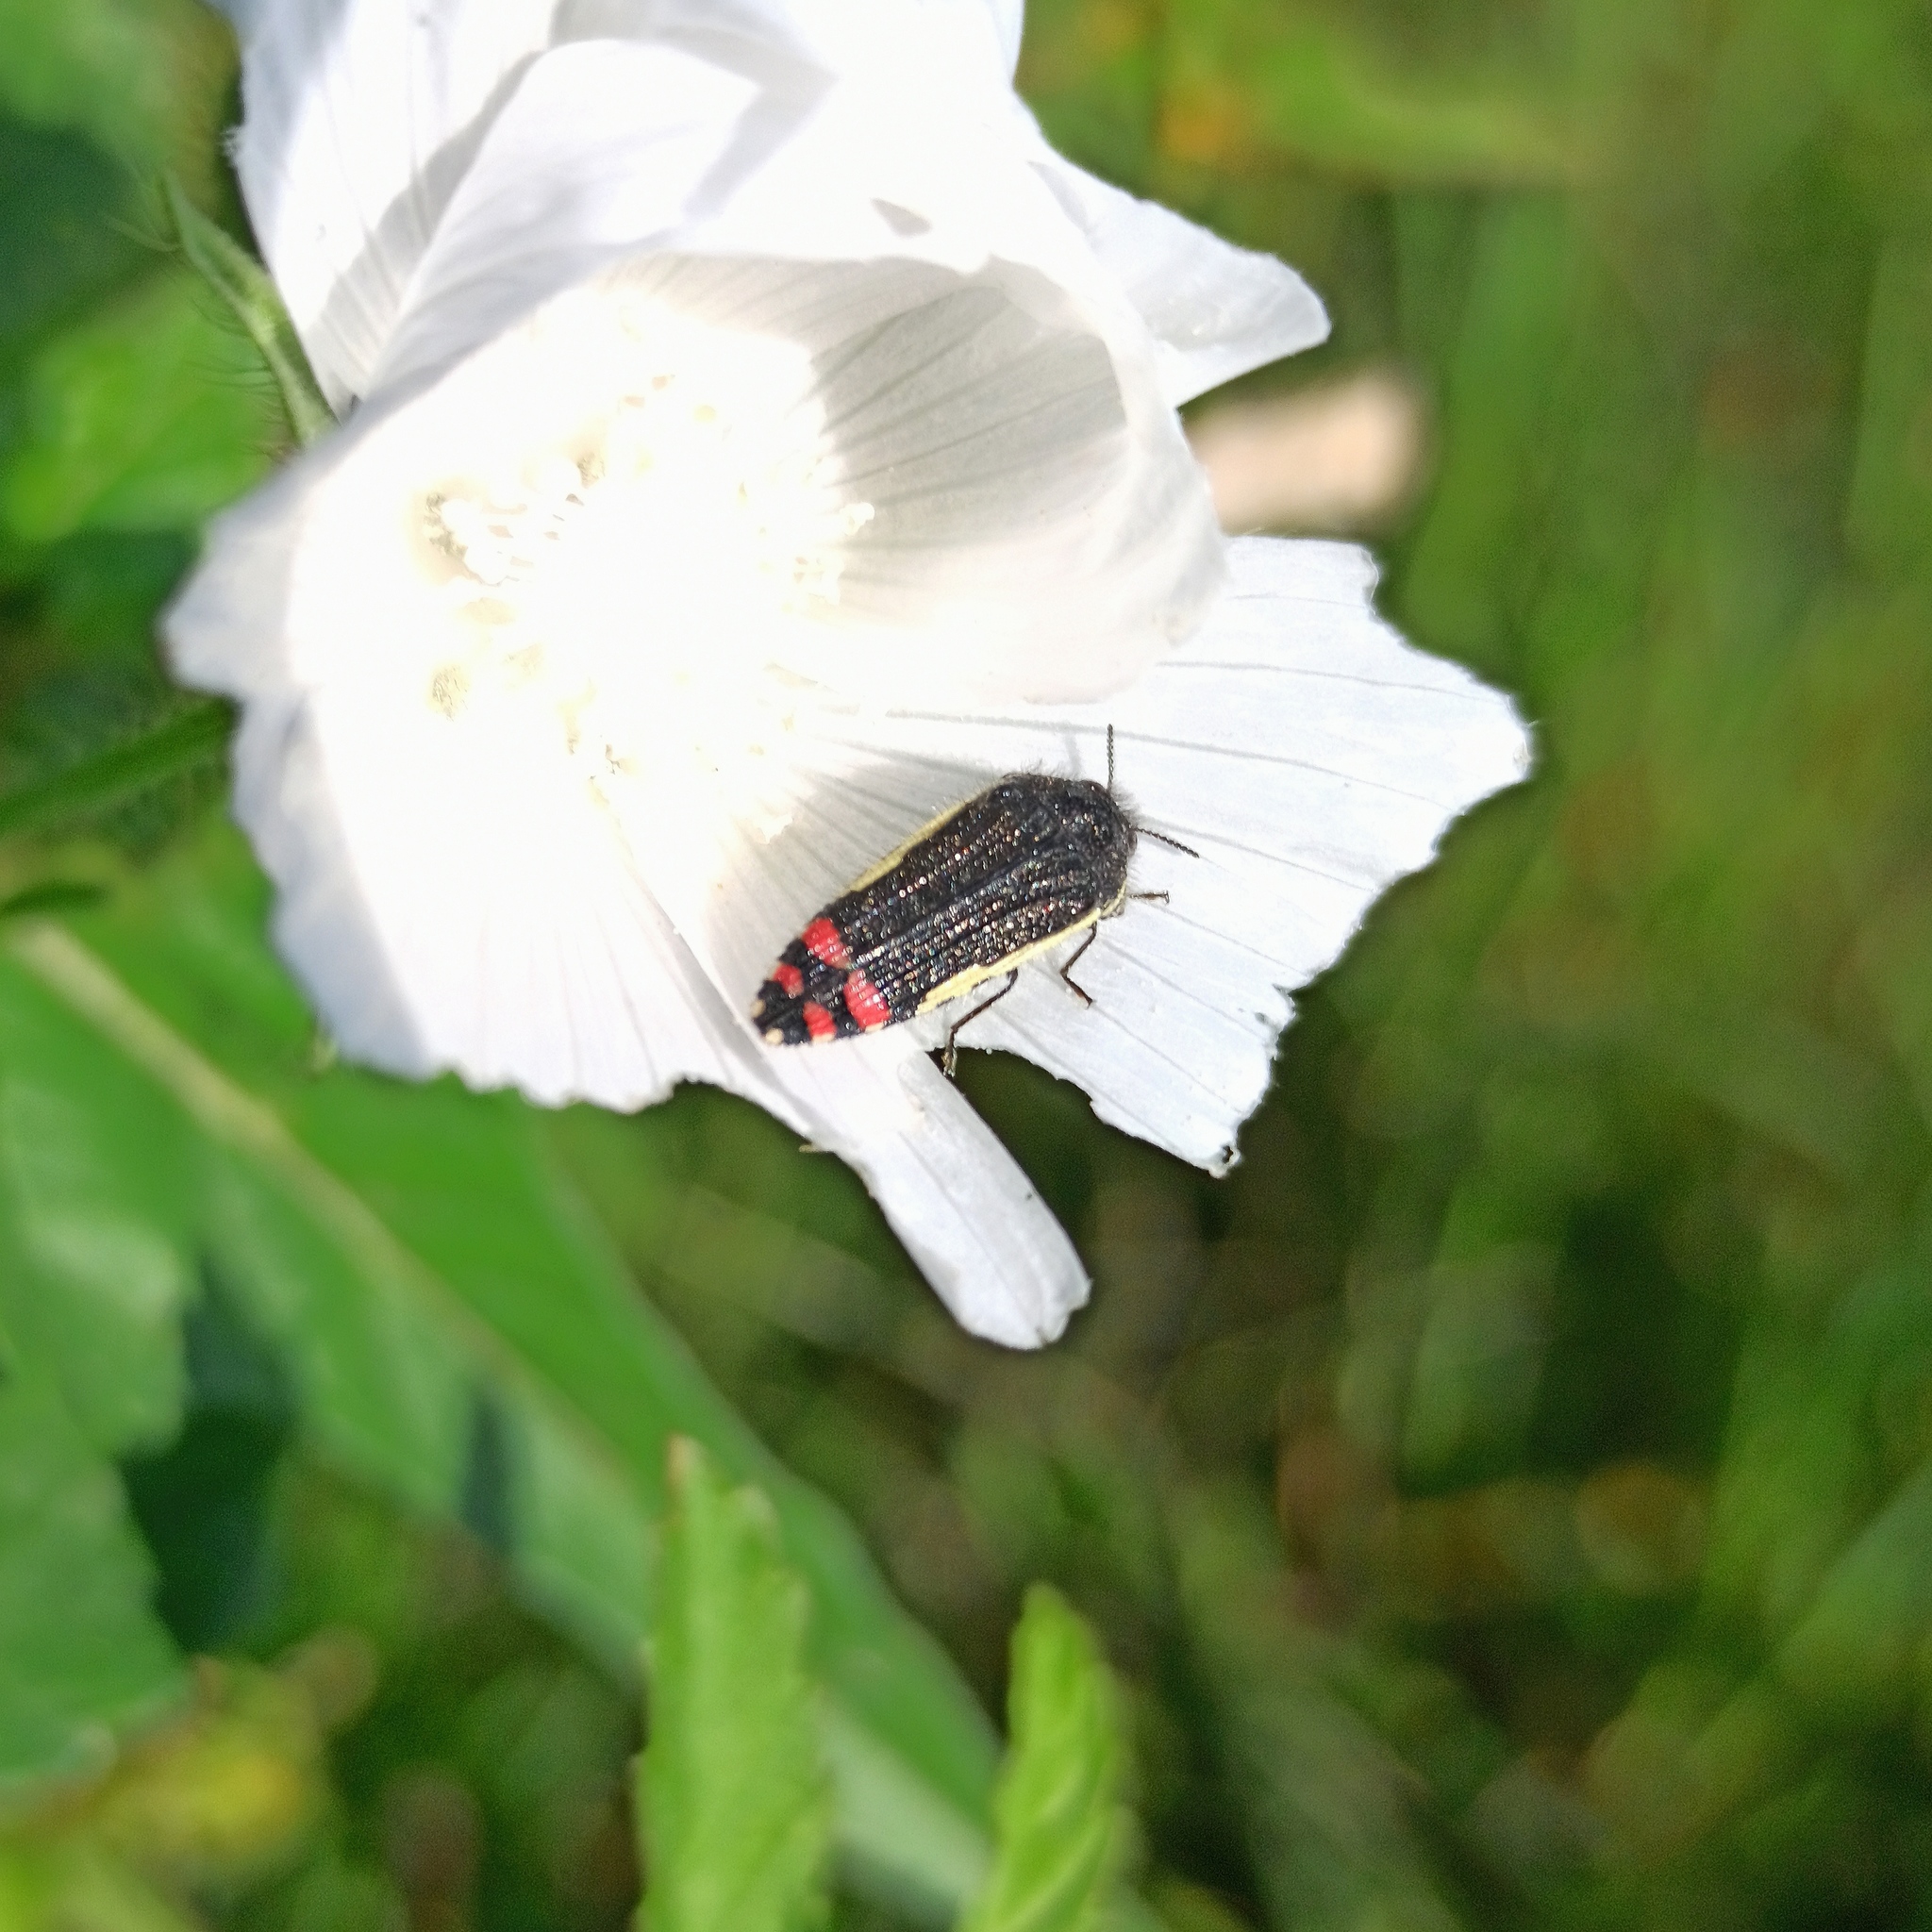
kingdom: Animalia
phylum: Arthropoda
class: Insecta
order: Coleoptera
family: Buprestidae
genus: Acmaeodera
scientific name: Acmaeodera flavomarginata
